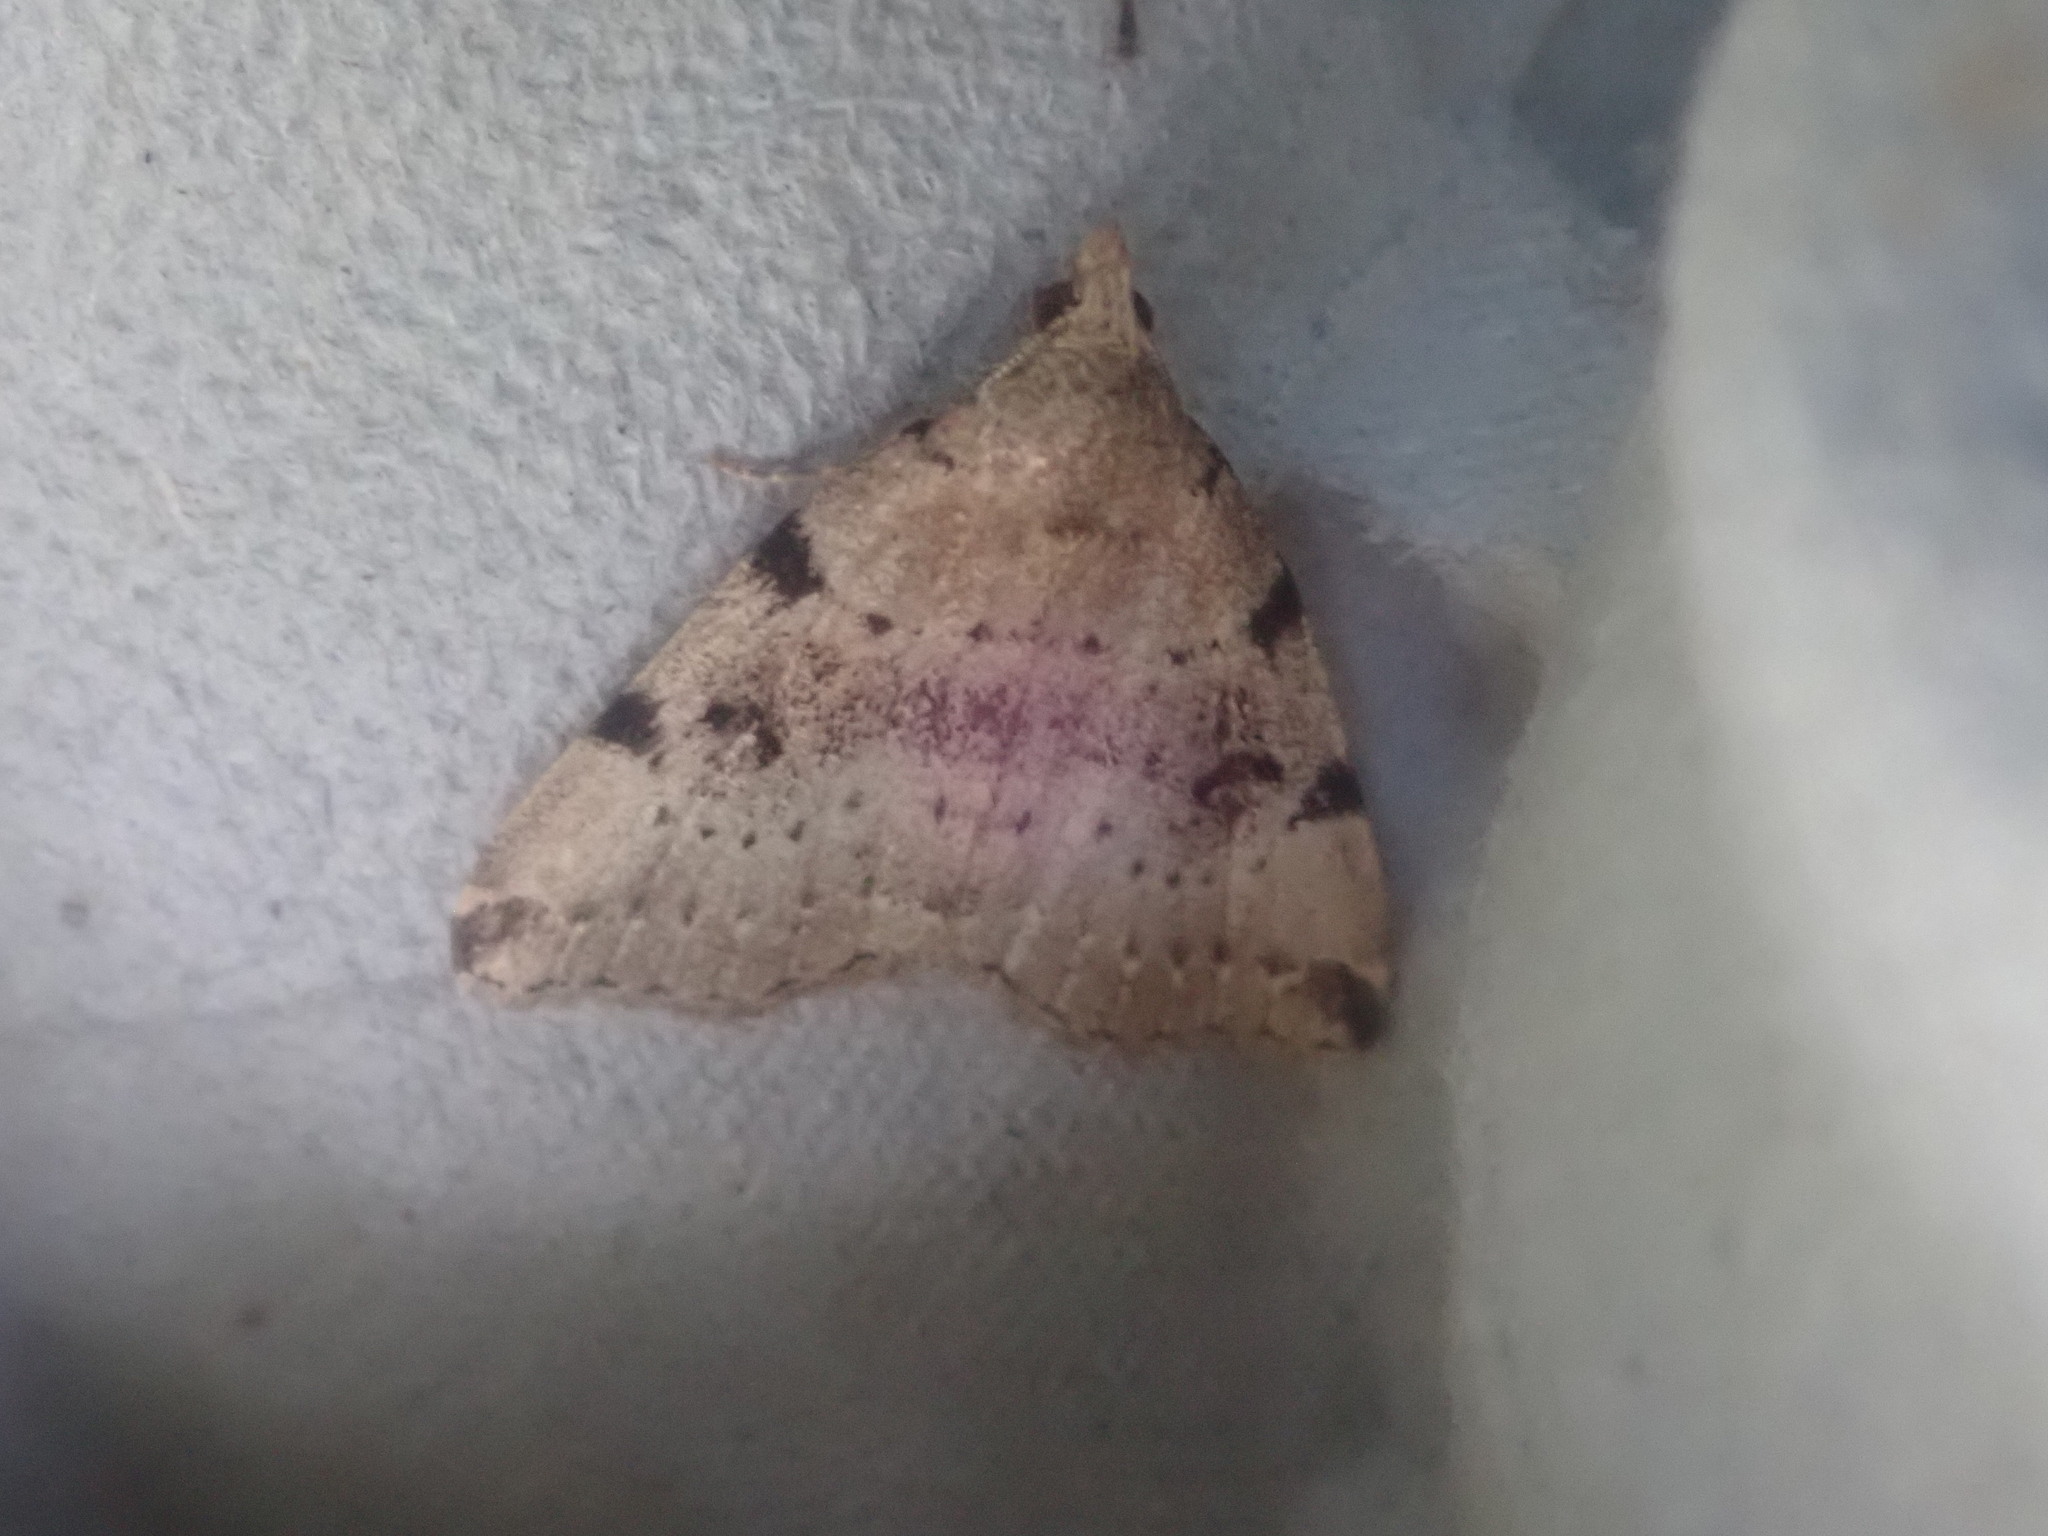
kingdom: Animalia
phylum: Arthropoda
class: Insecta
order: Lepidoptera
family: Erebidae
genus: Zanclognatha
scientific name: Zanclognatha lituralis
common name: Lettered fan-foot
